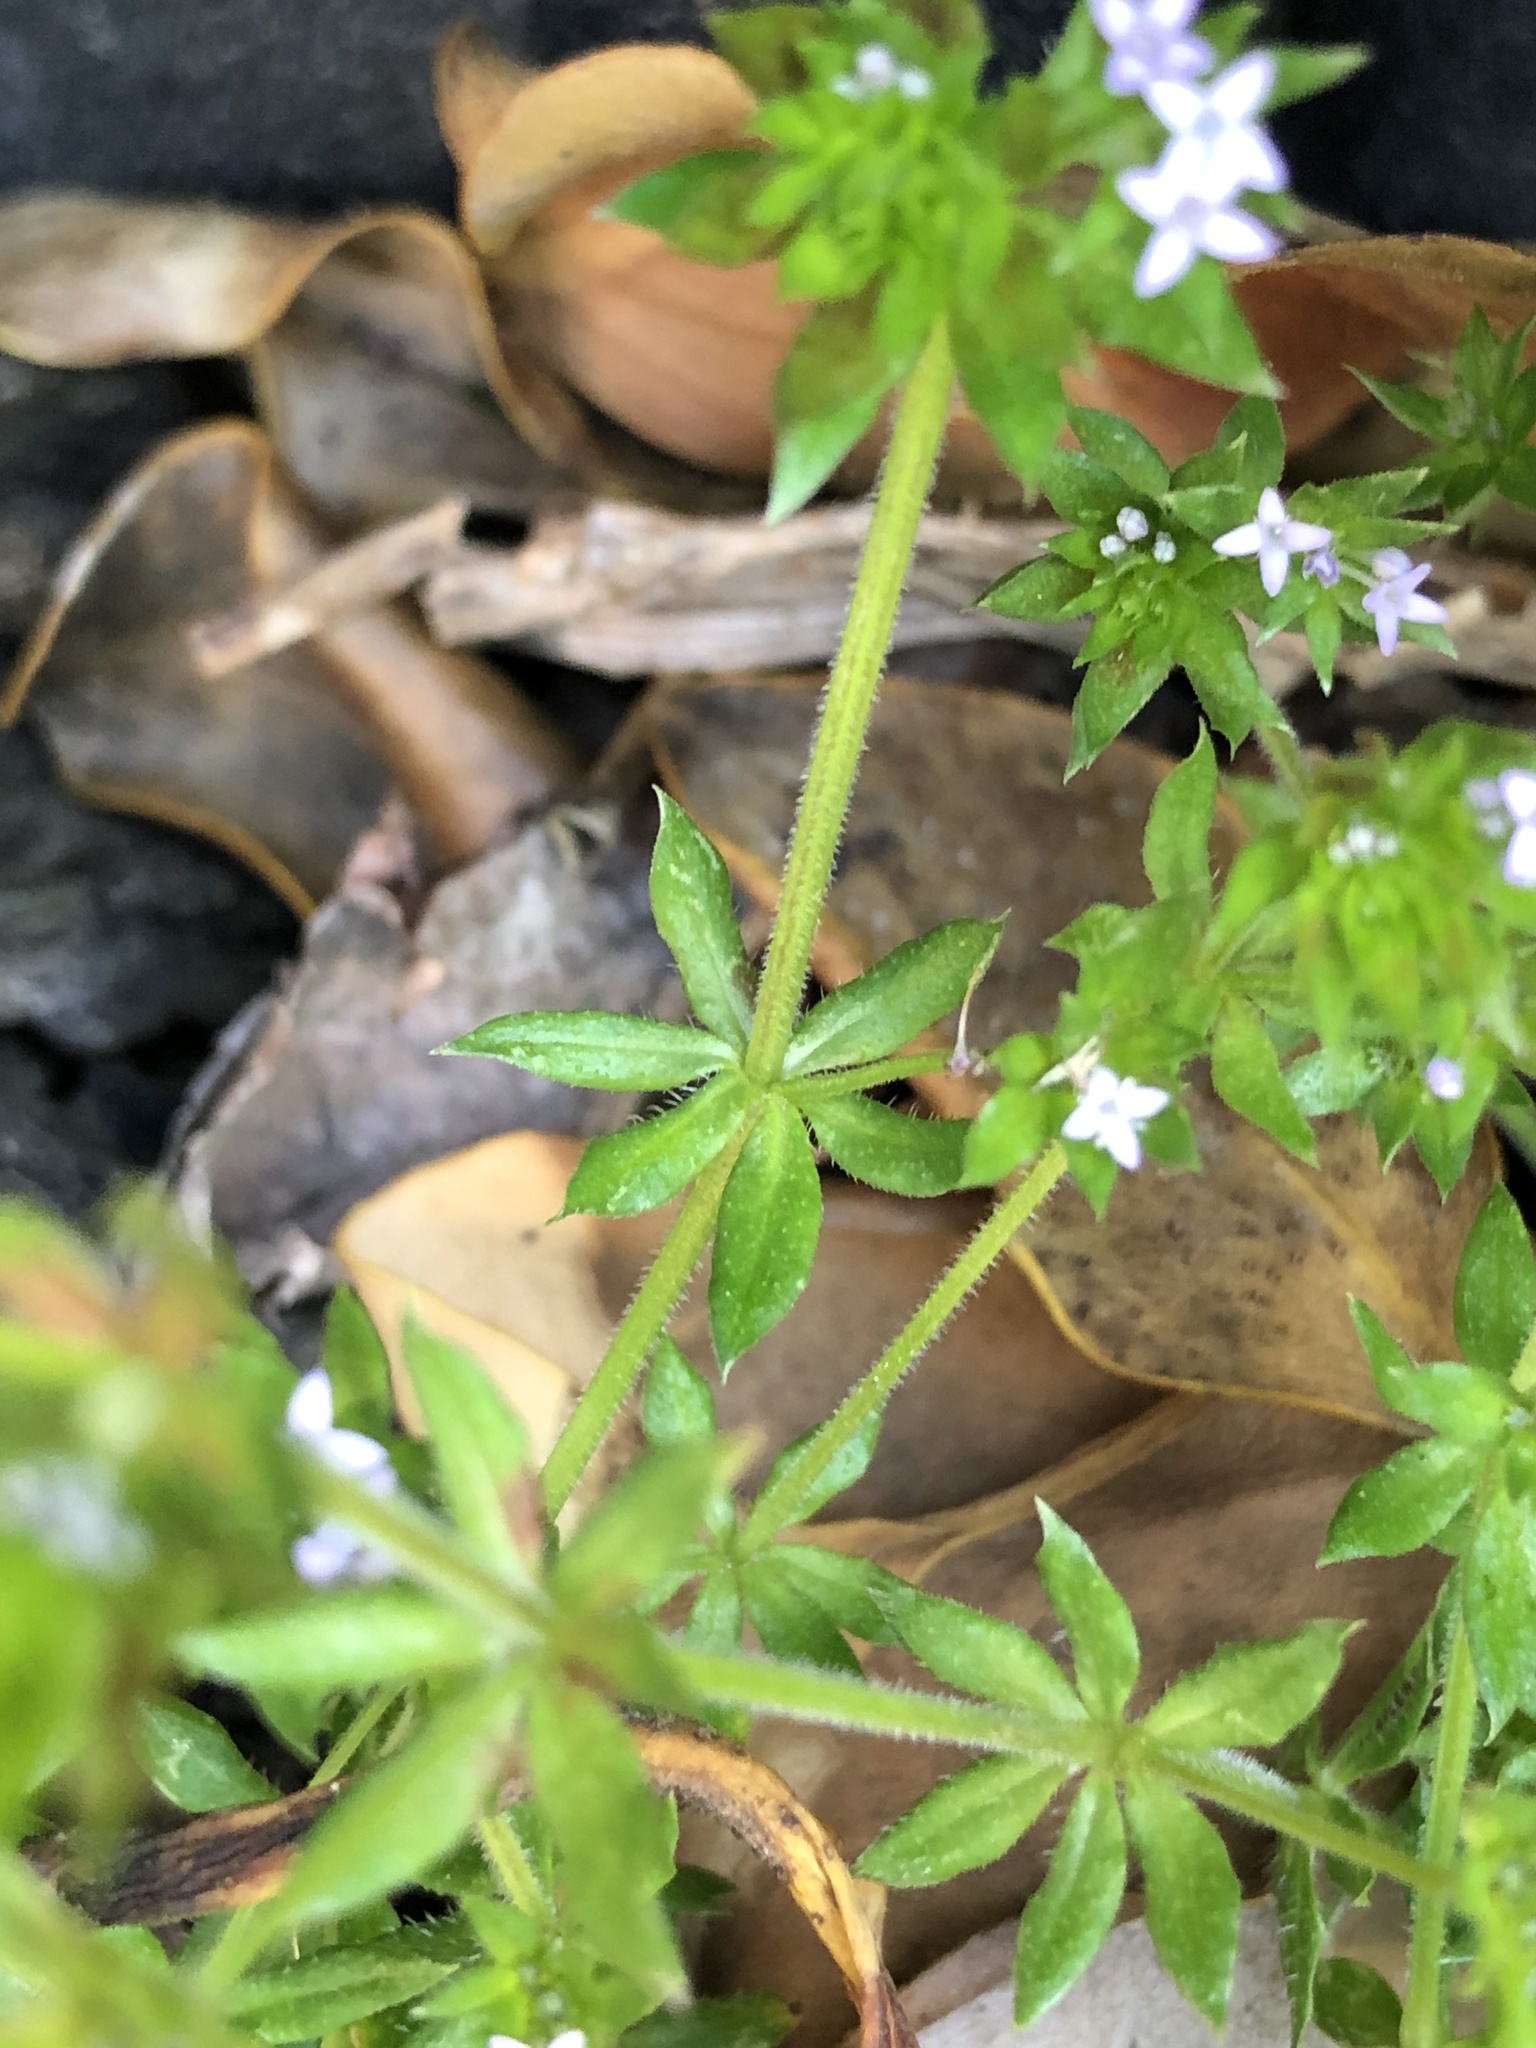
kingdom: Plantae
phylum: Tracheophyta
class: Magnoliopsida
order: Gentianales
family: Rubiaceae
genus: Sherardia
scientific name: Sherardia arvensis
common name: Field madder
